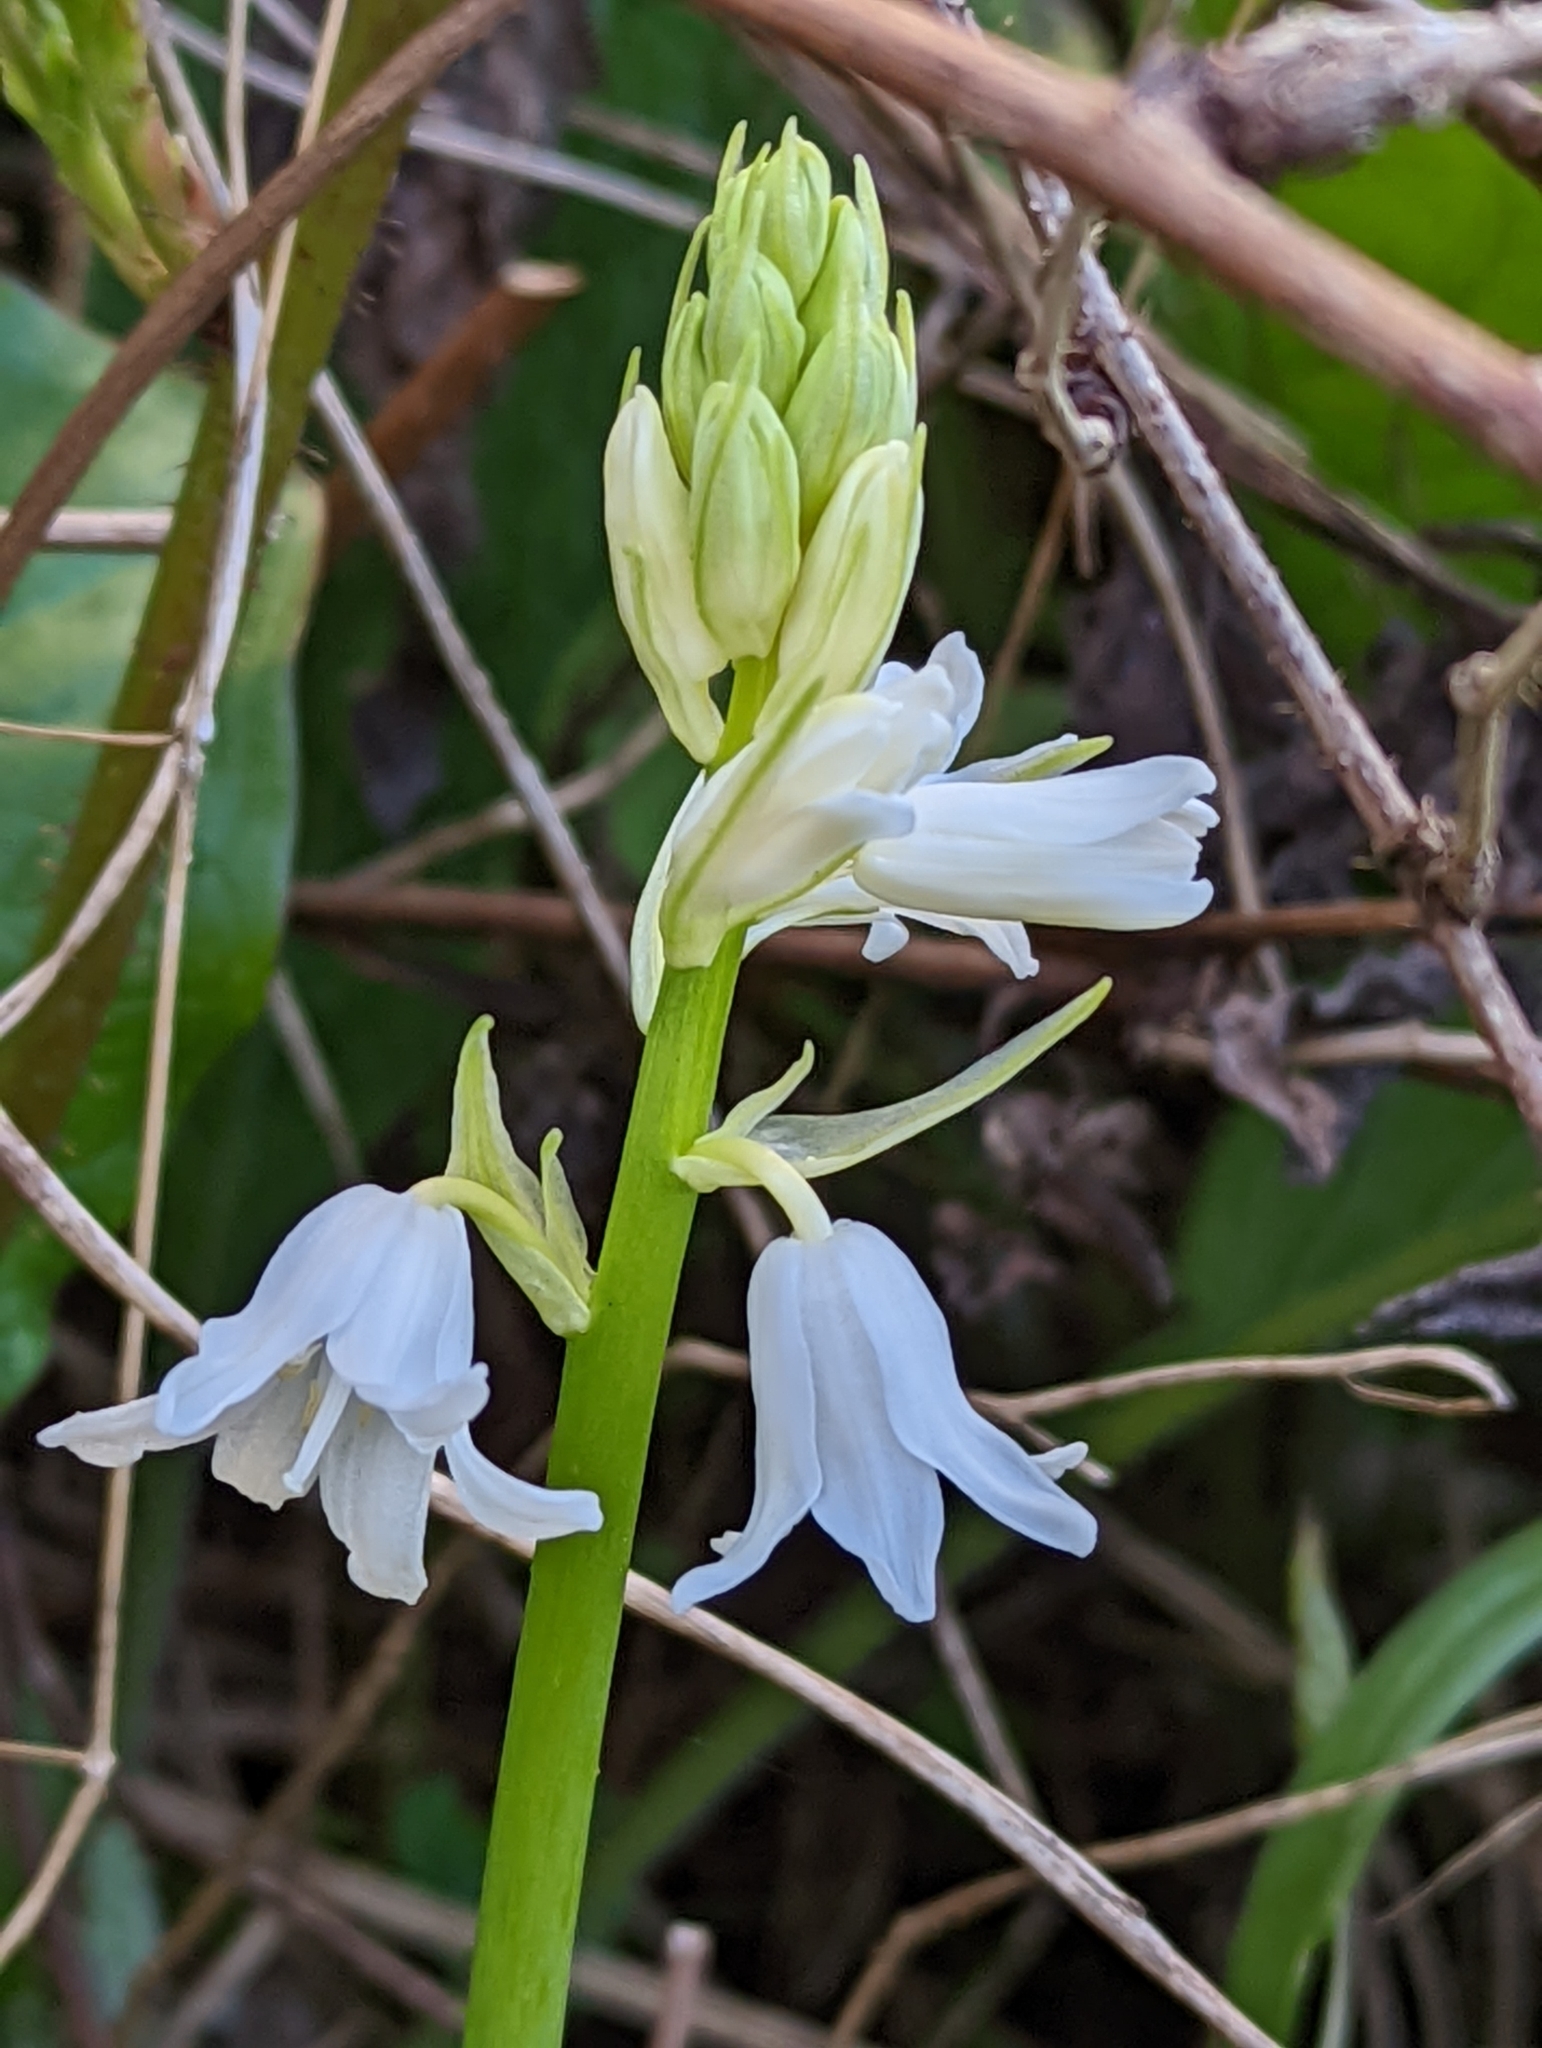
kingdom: Plantae
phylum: Tracheophyta
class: Liliopsida
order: Asparagales
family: Asparagaceae
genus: Hyacinthoides
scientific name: Hyacinthoides hispanica
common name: Spanish bluebell
